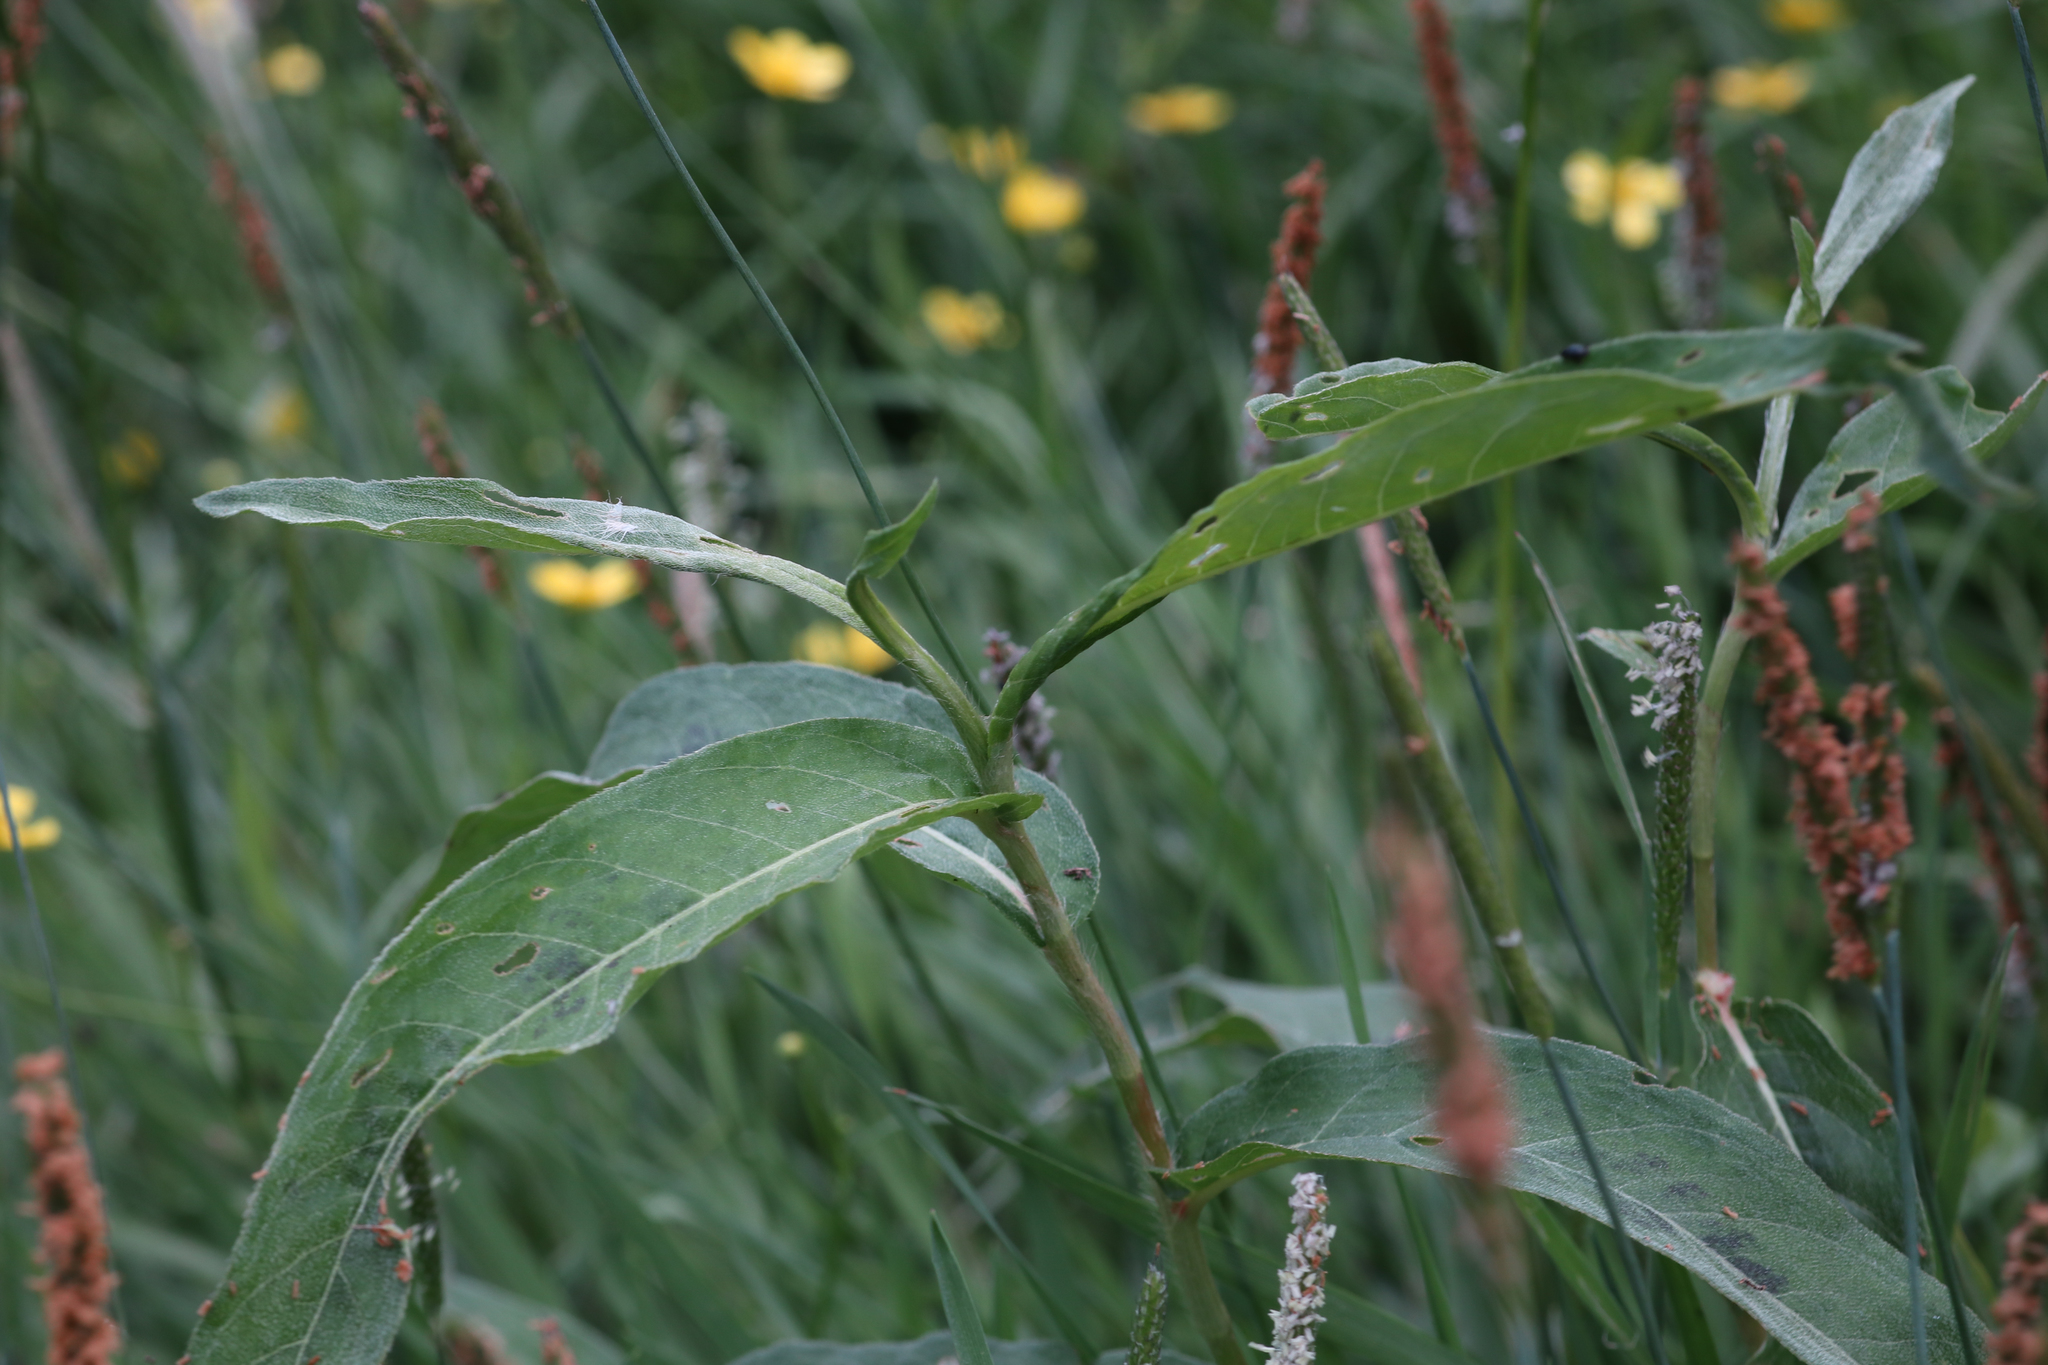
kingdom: Plantae
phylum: Tracheophyta
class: Magnoliopsida
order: Caryophyllales
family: Polygonaceae
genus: Persicaria
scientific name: Persicaria amphibia
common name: Amphibious bistort
